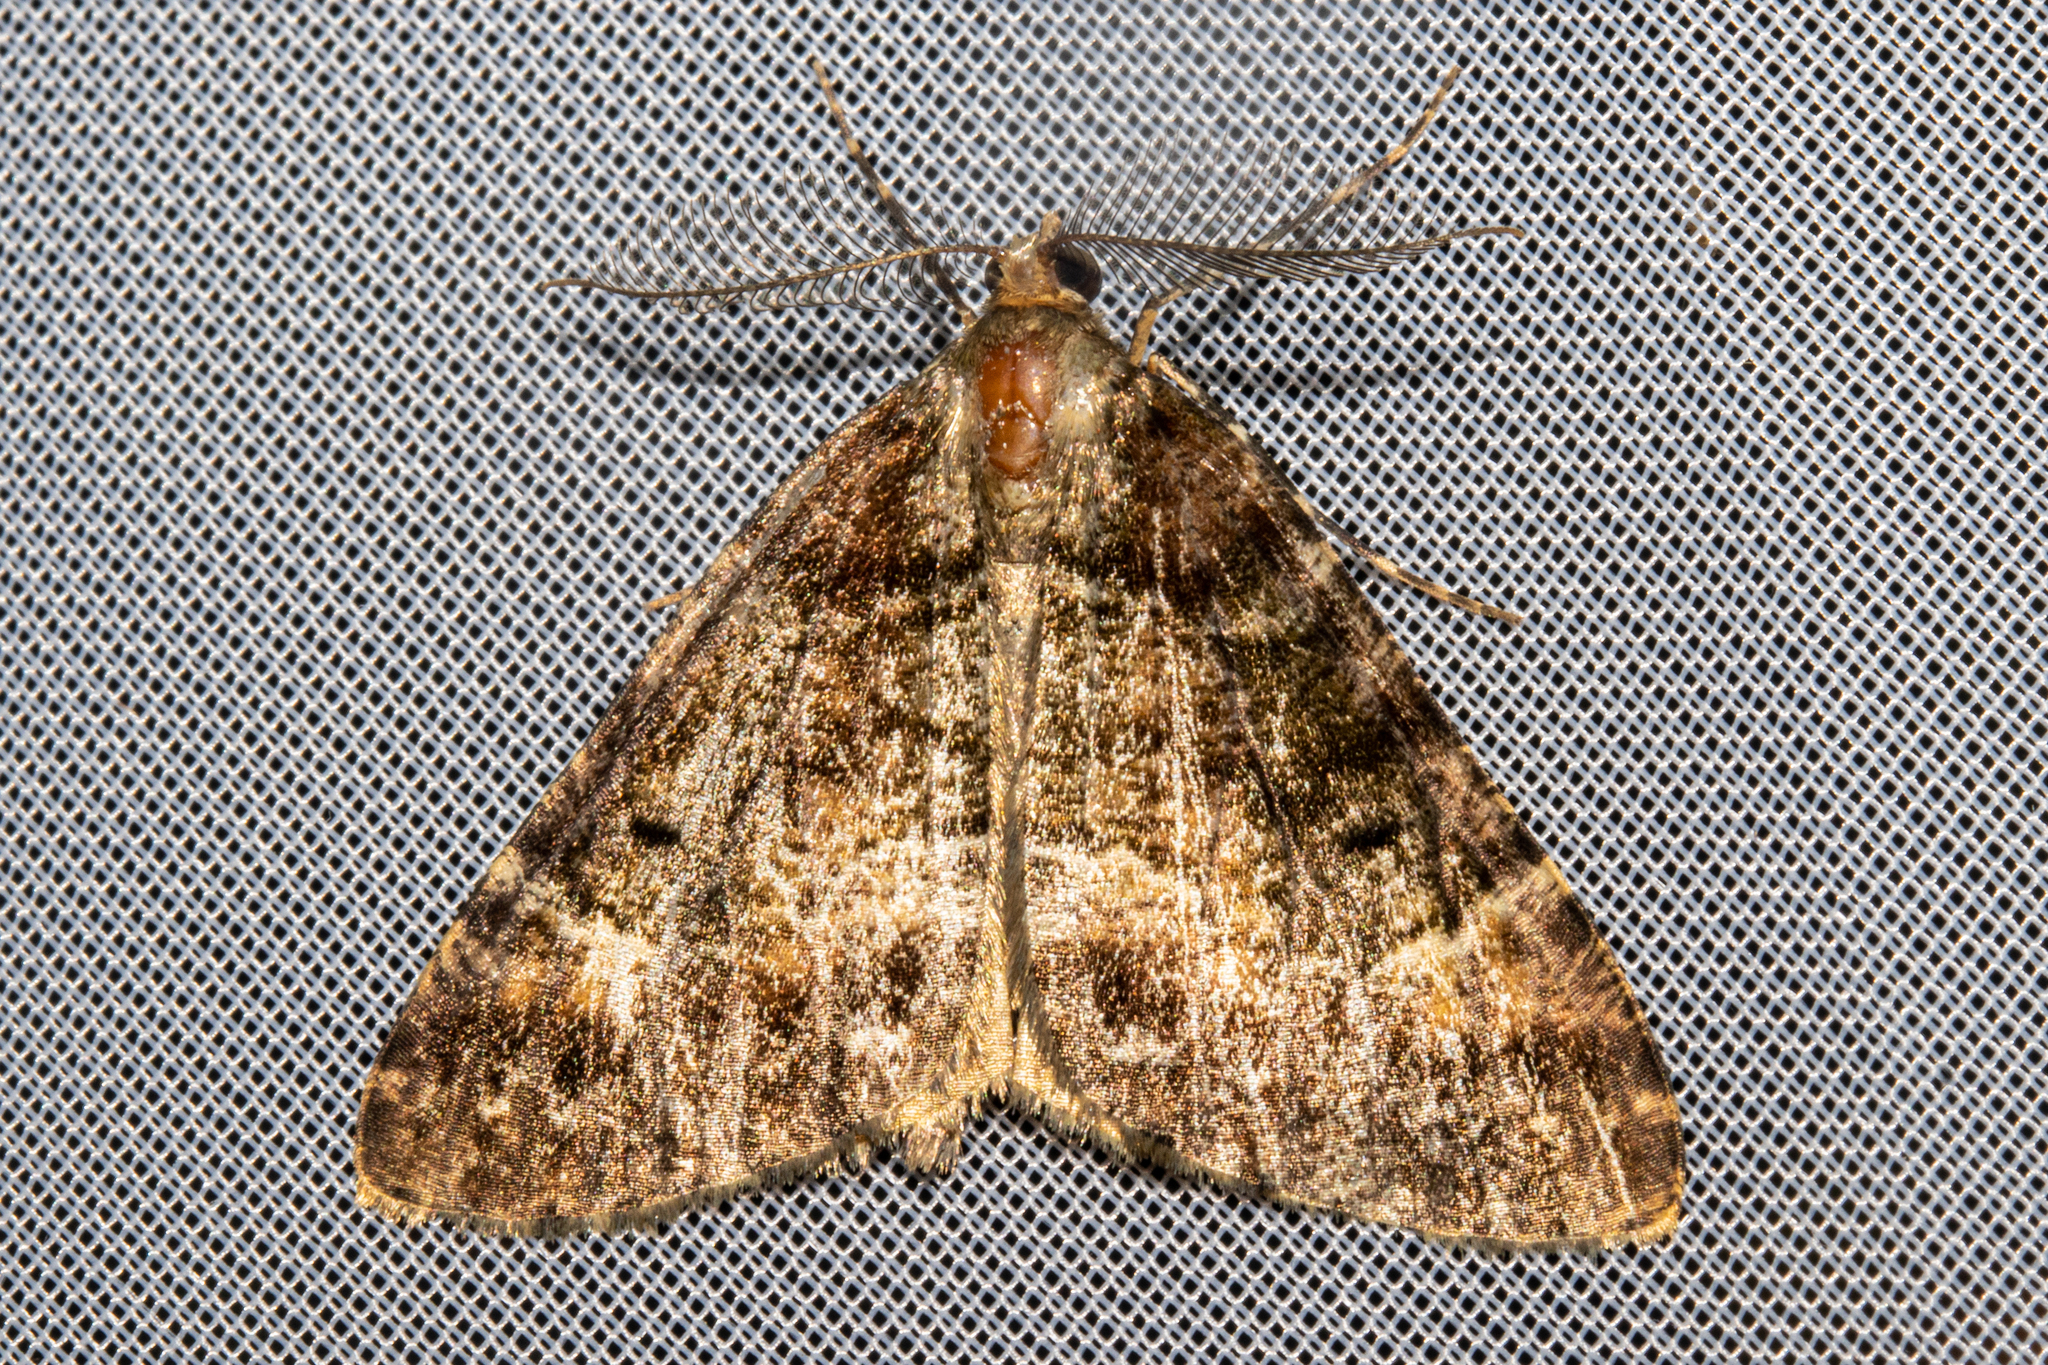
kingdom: Animalia
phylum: Arthropoda
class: Insecta
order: Lepidoptera
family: Geometridae
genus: Pseudocoremia
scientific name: Pseudocoremia productata
